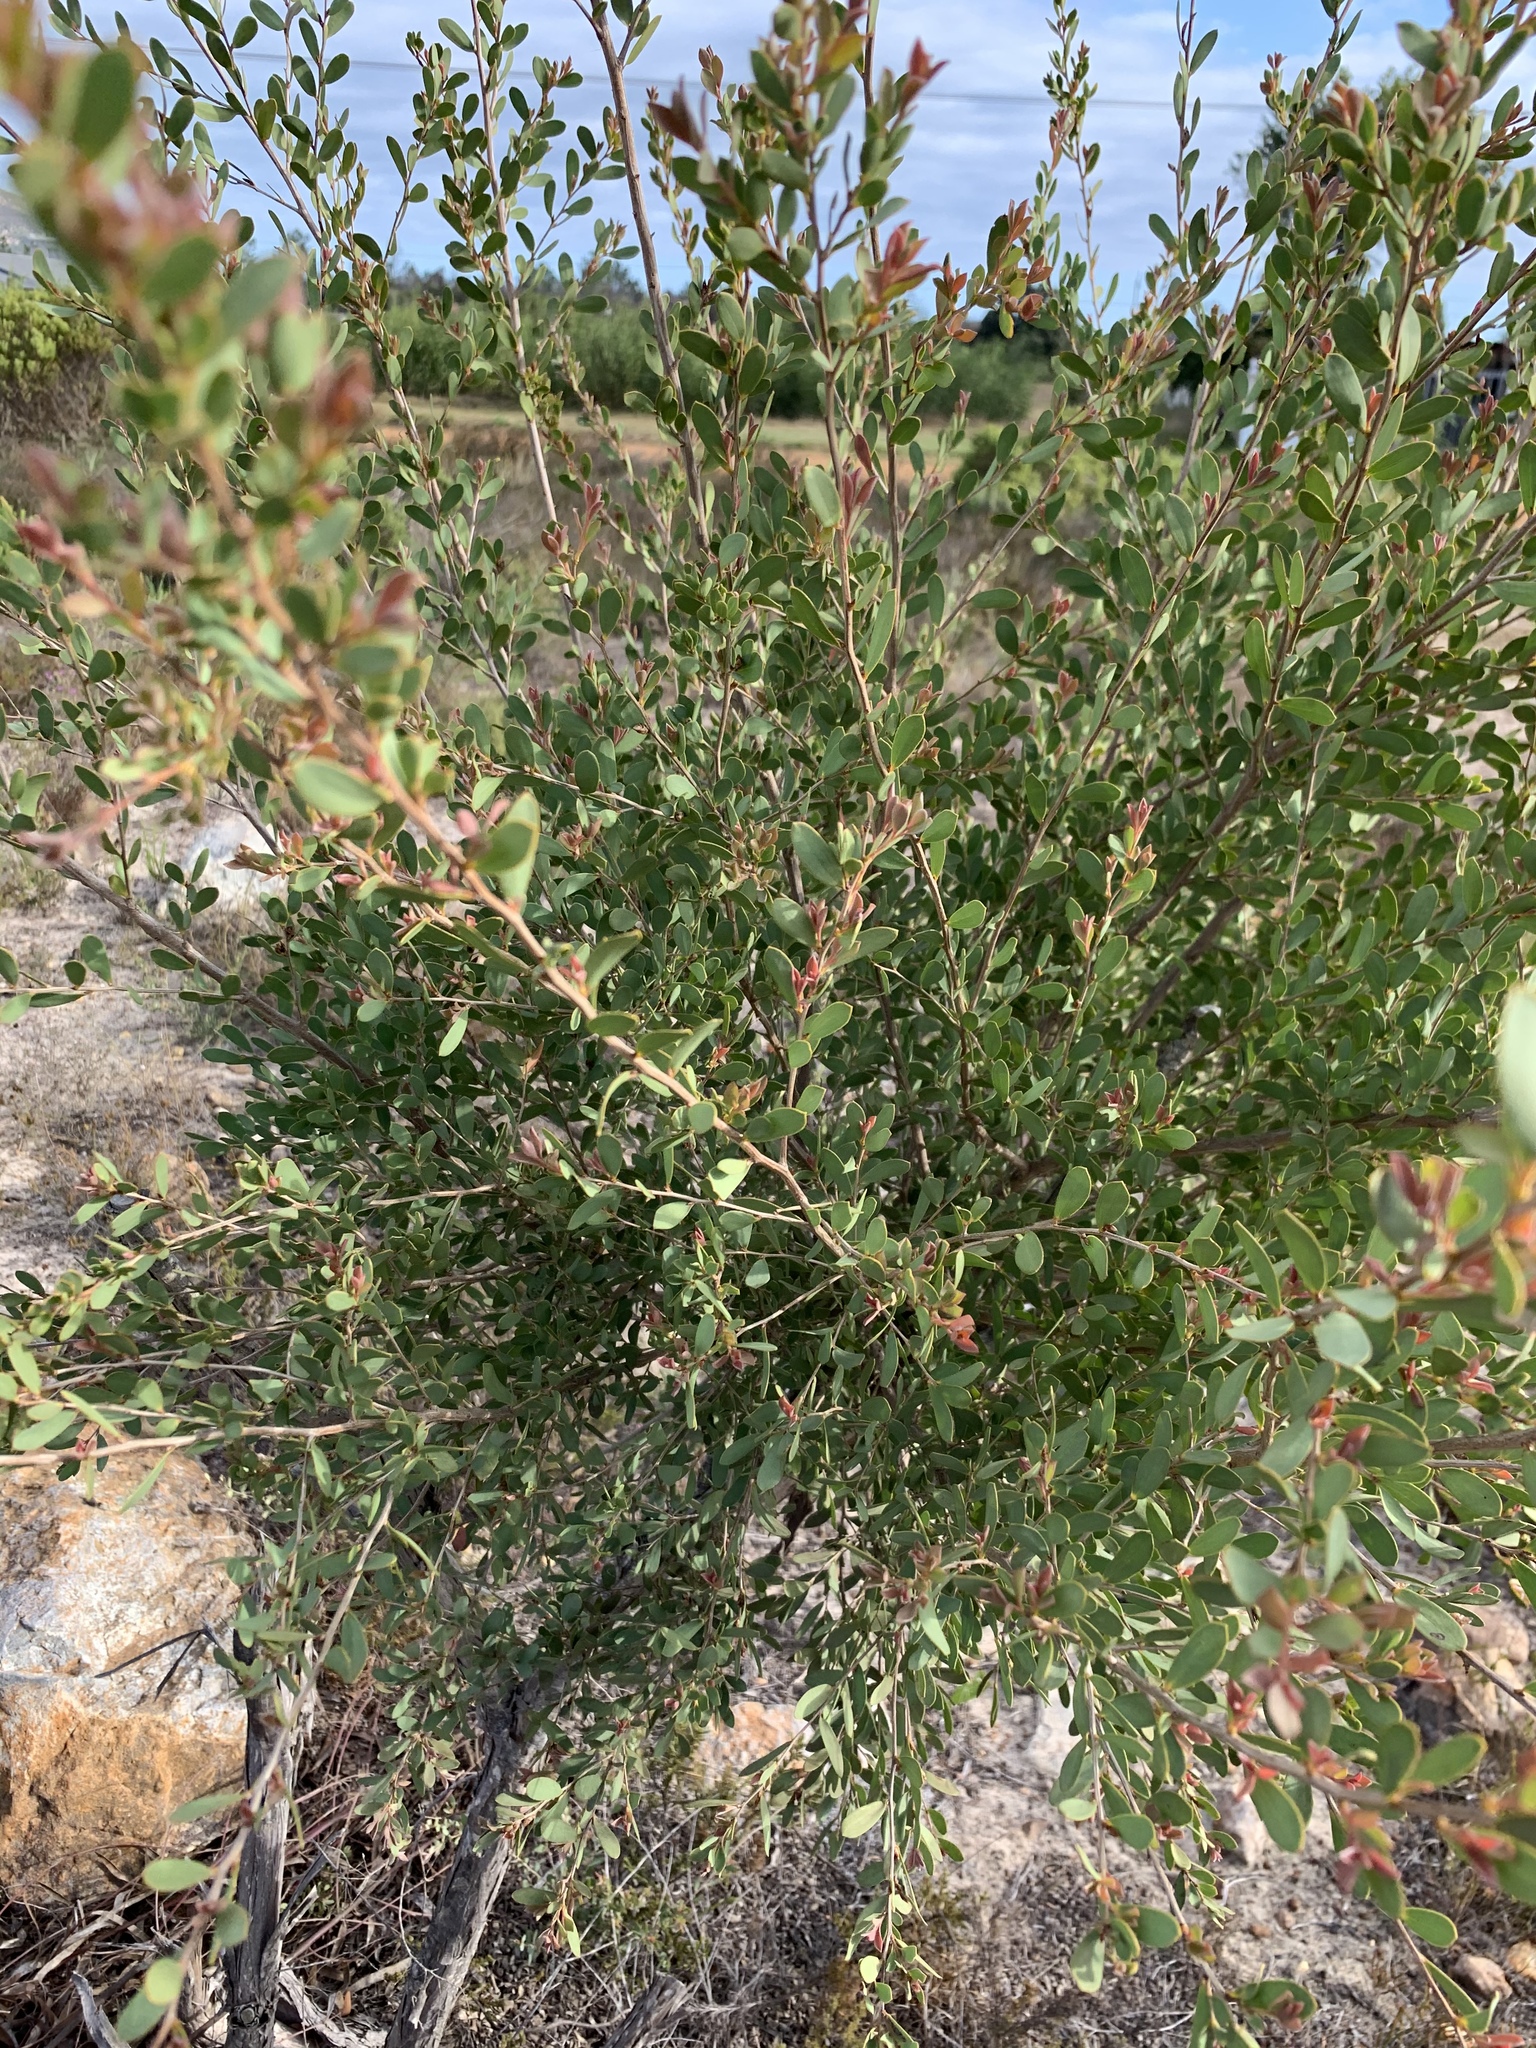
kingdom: Plantae
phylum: Tracheophyta
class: Magnoliopsida
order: Myrtales
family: Myrtaceae
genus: Leptospermum
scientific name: Leptospermum laevigatum
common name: Australian teatree
